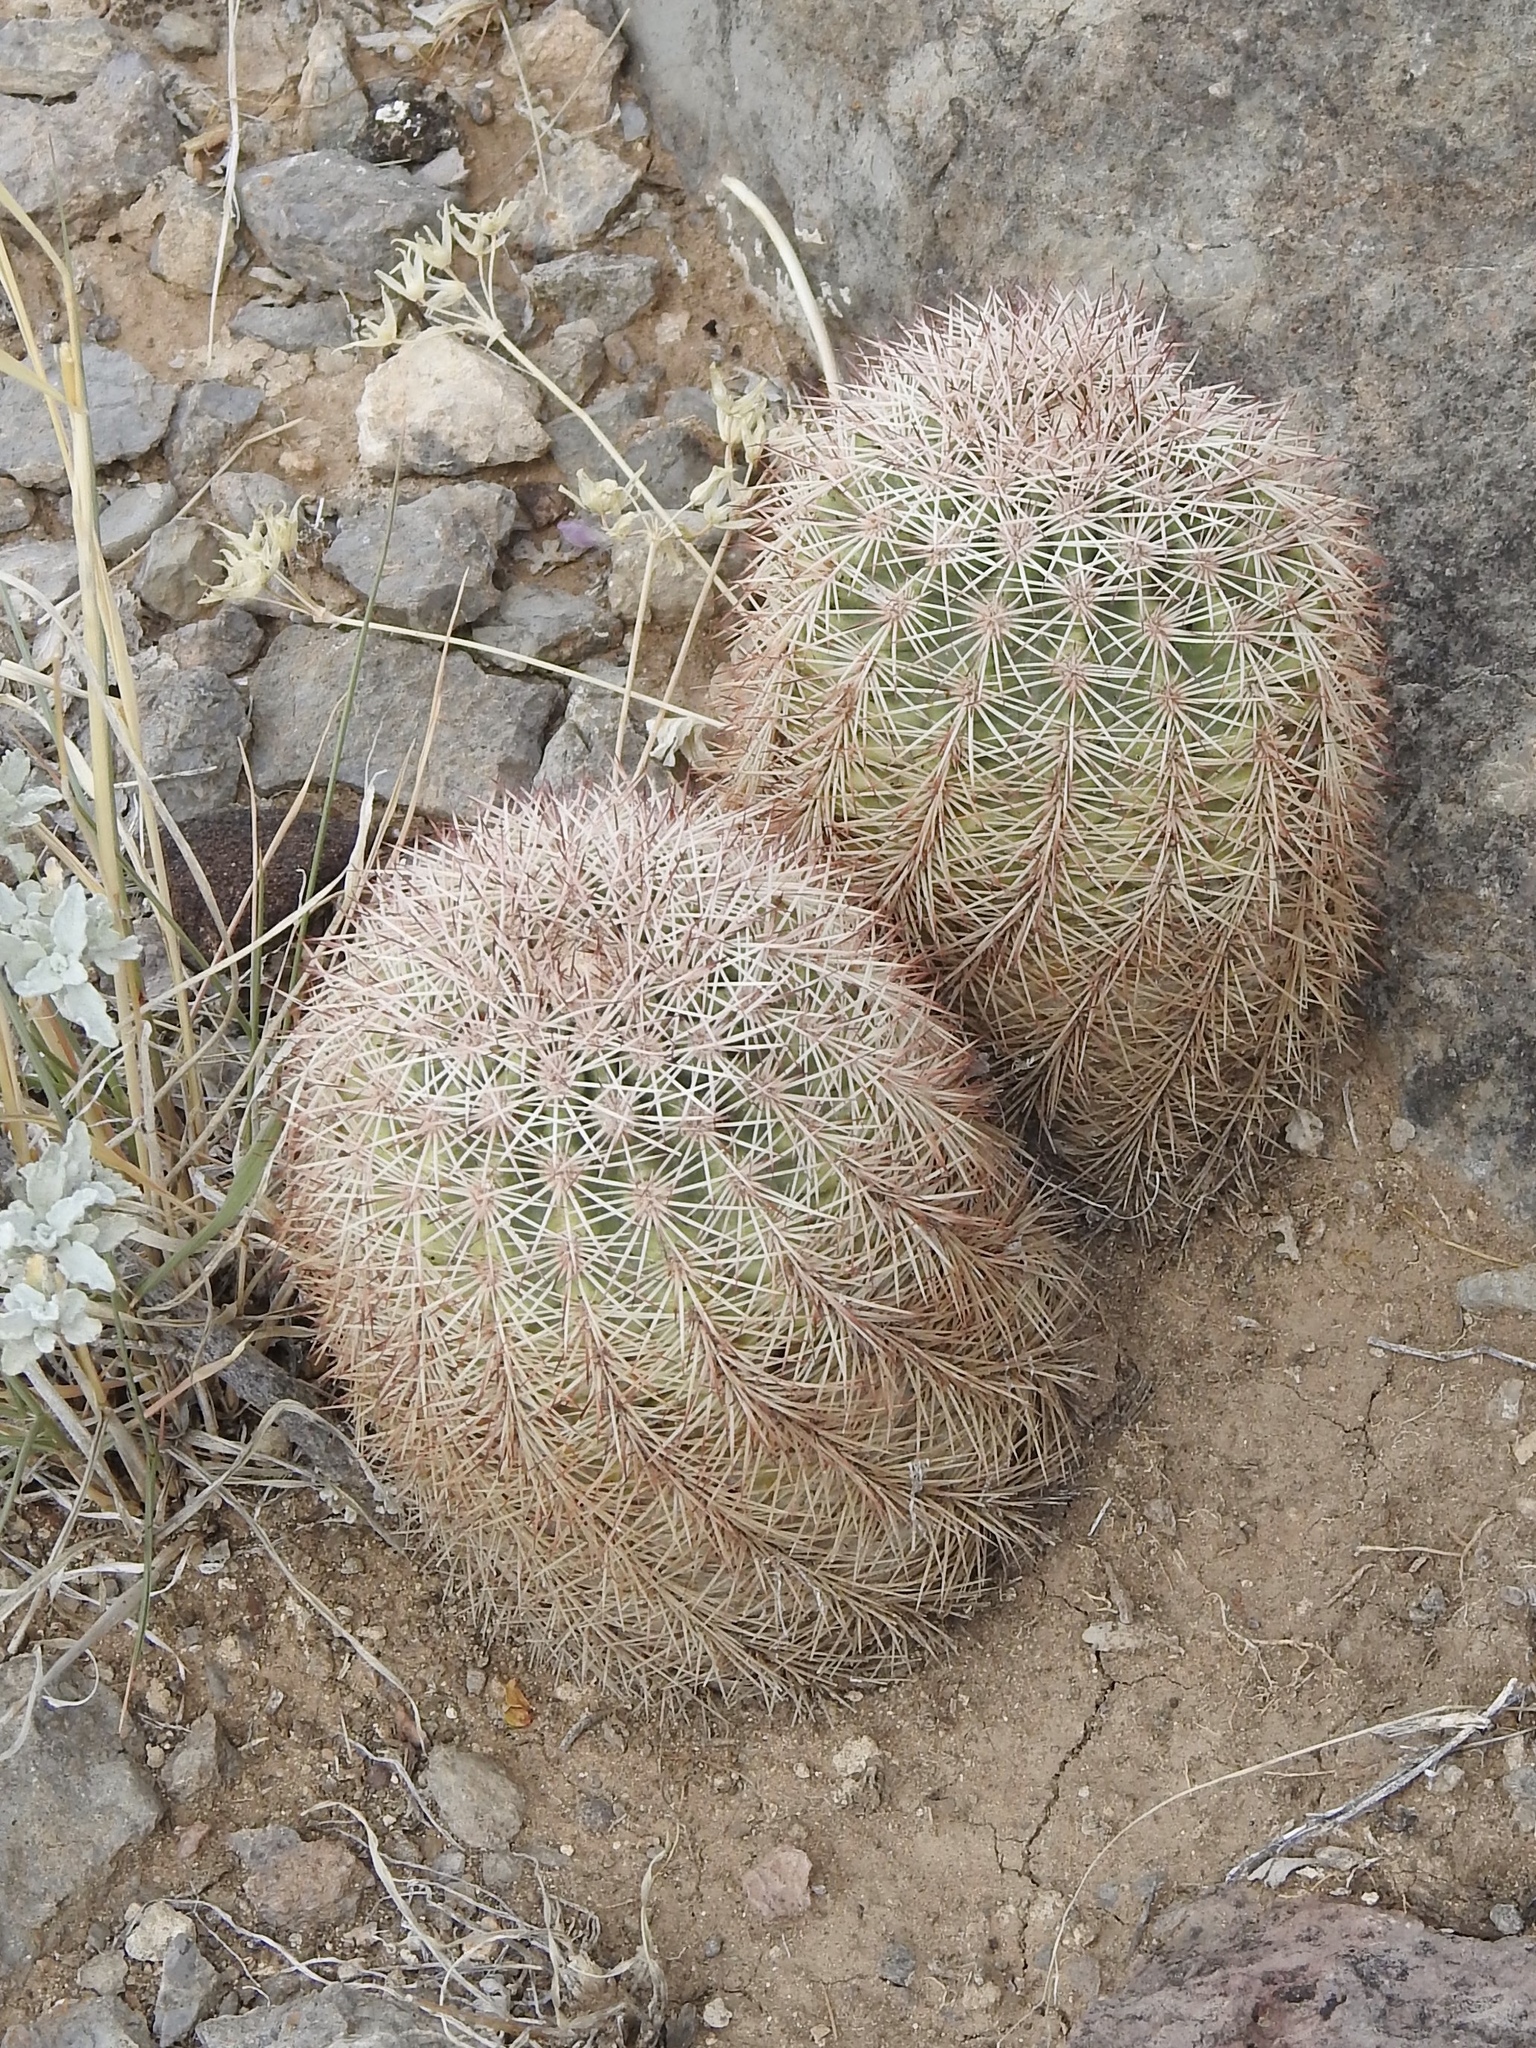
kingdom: Plantae
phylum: Tracheophyta
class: Magnoliopsida
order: Caryophyllales
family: Cactaceae
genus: Echinocereus
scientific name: Echinocereus dasyacanthus
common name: Spiny hedgehog cactus
